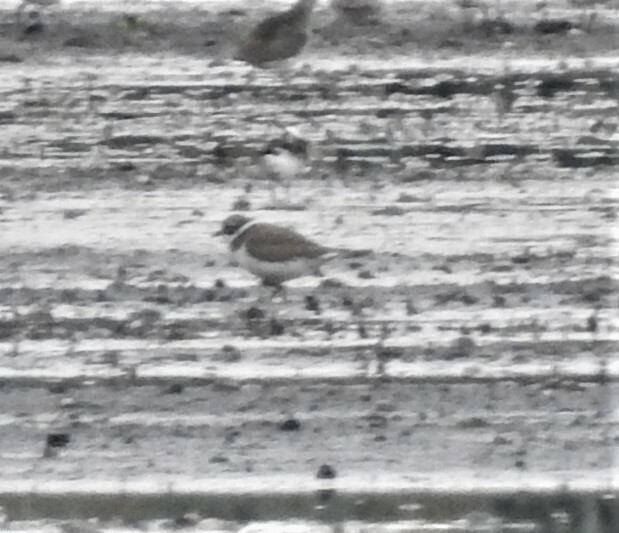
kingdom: Animalia
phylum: Chordata
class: Aves
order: Charadriiformes
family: Charadriidae
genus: Charadrius
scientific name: Charadrius hiaticula
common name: Common ringed plover
